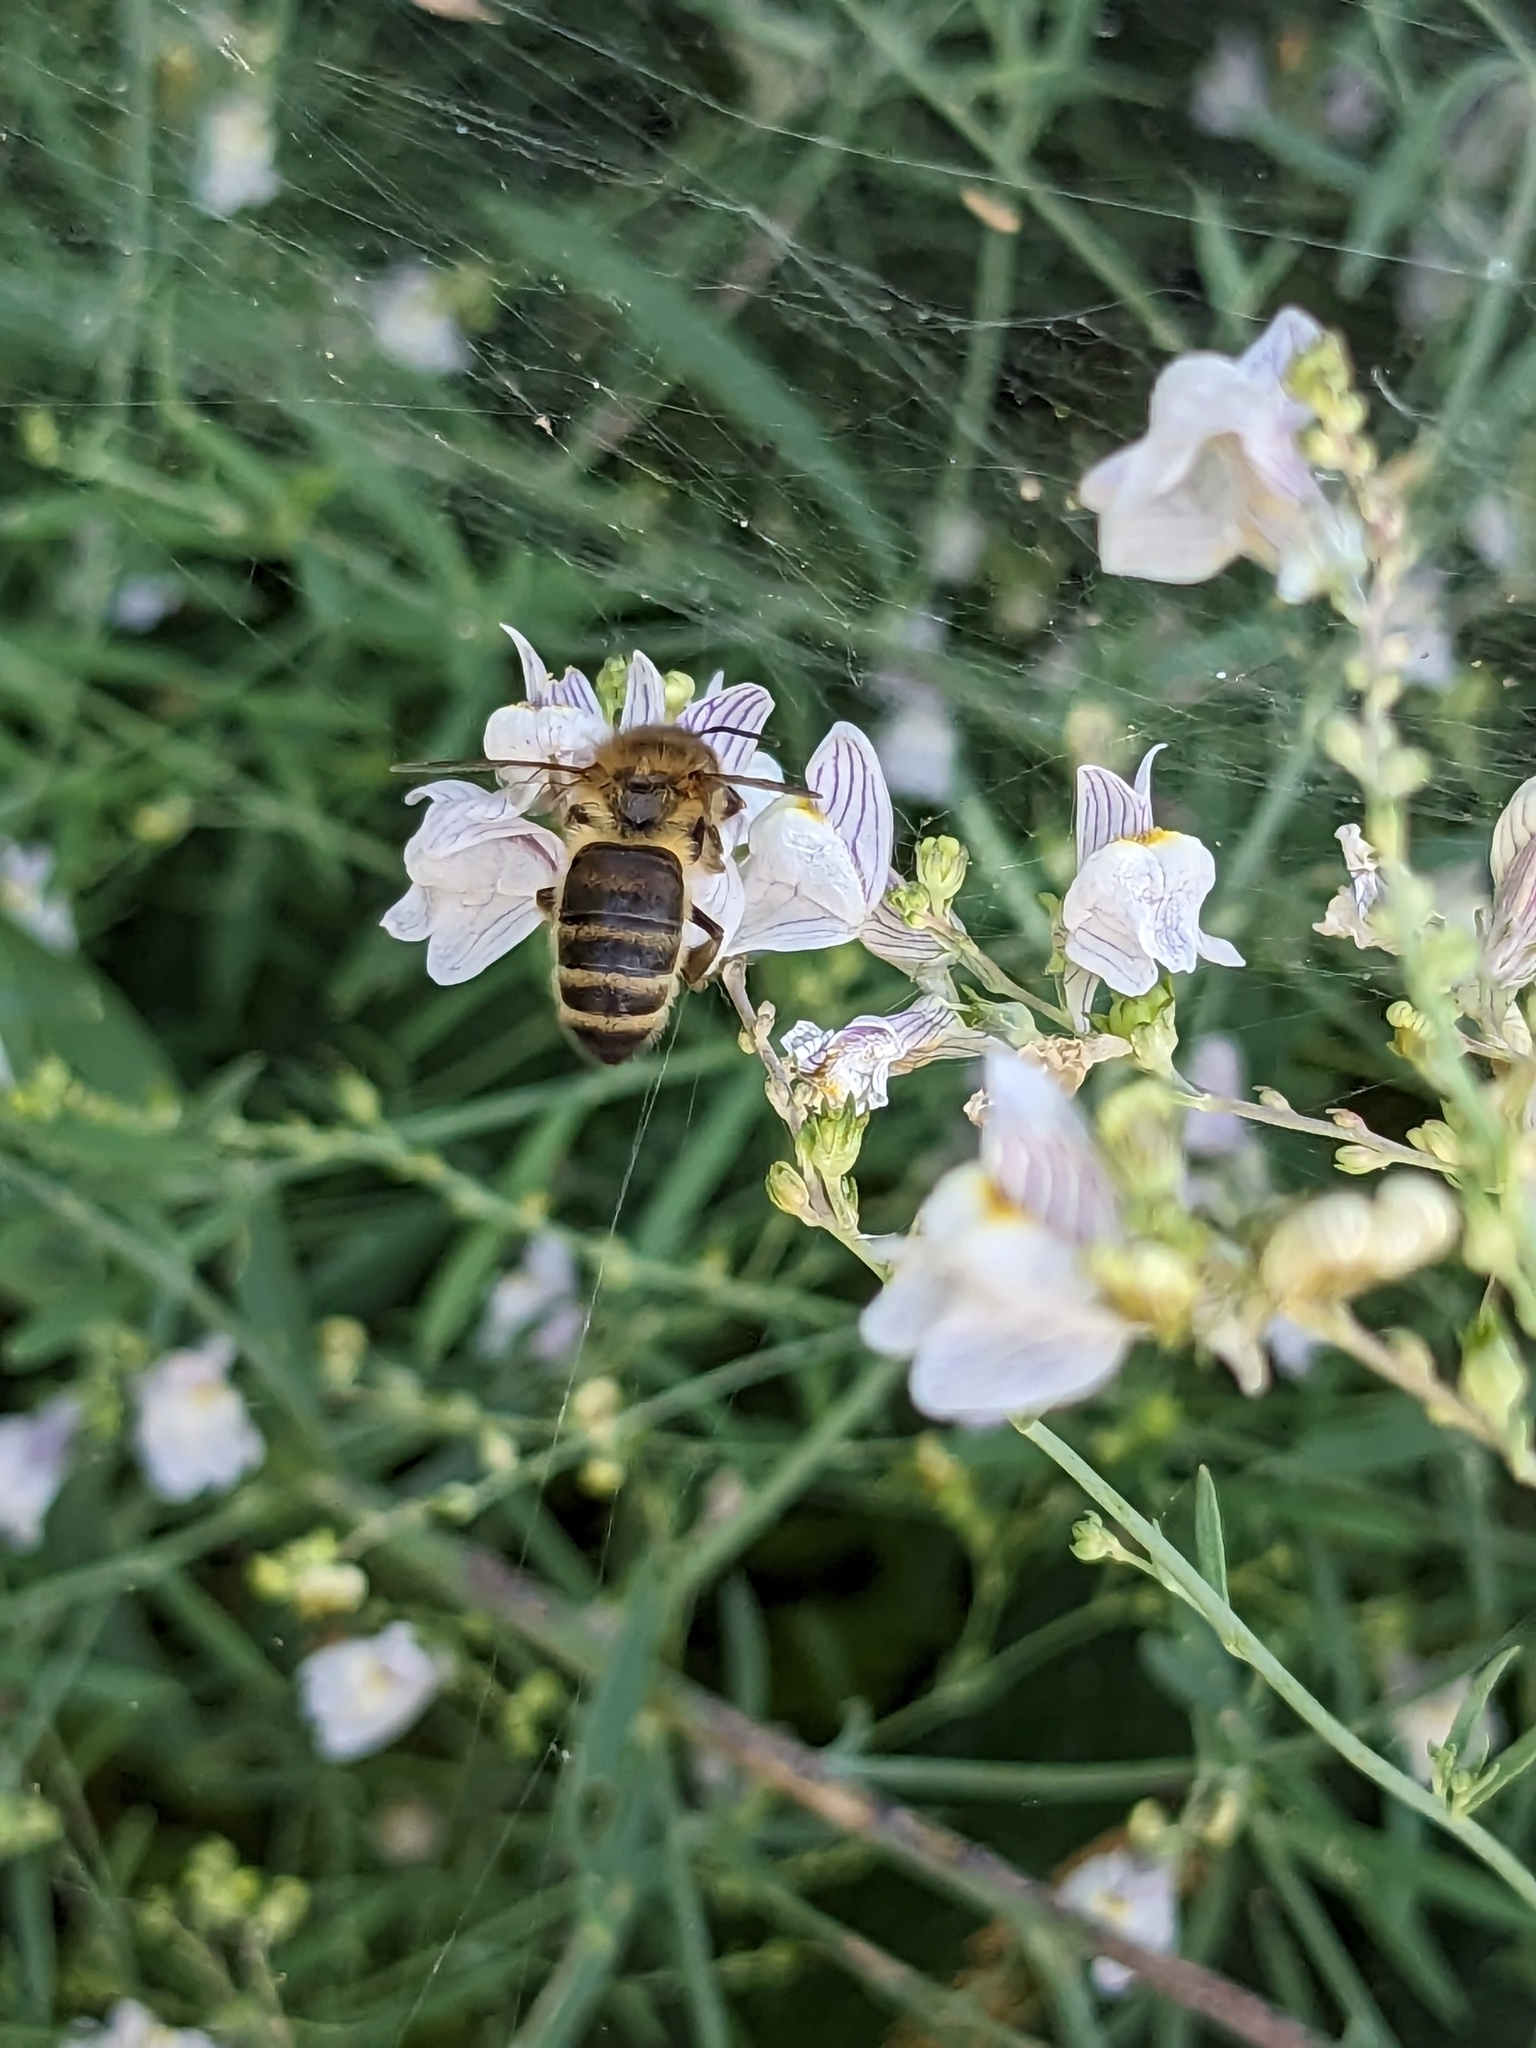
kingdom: Animalia
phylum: Arthropoda
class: Insecta
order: Hymenoptera
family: Apidae
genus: Apis
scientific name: Apis mellifera
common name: Honey bee
